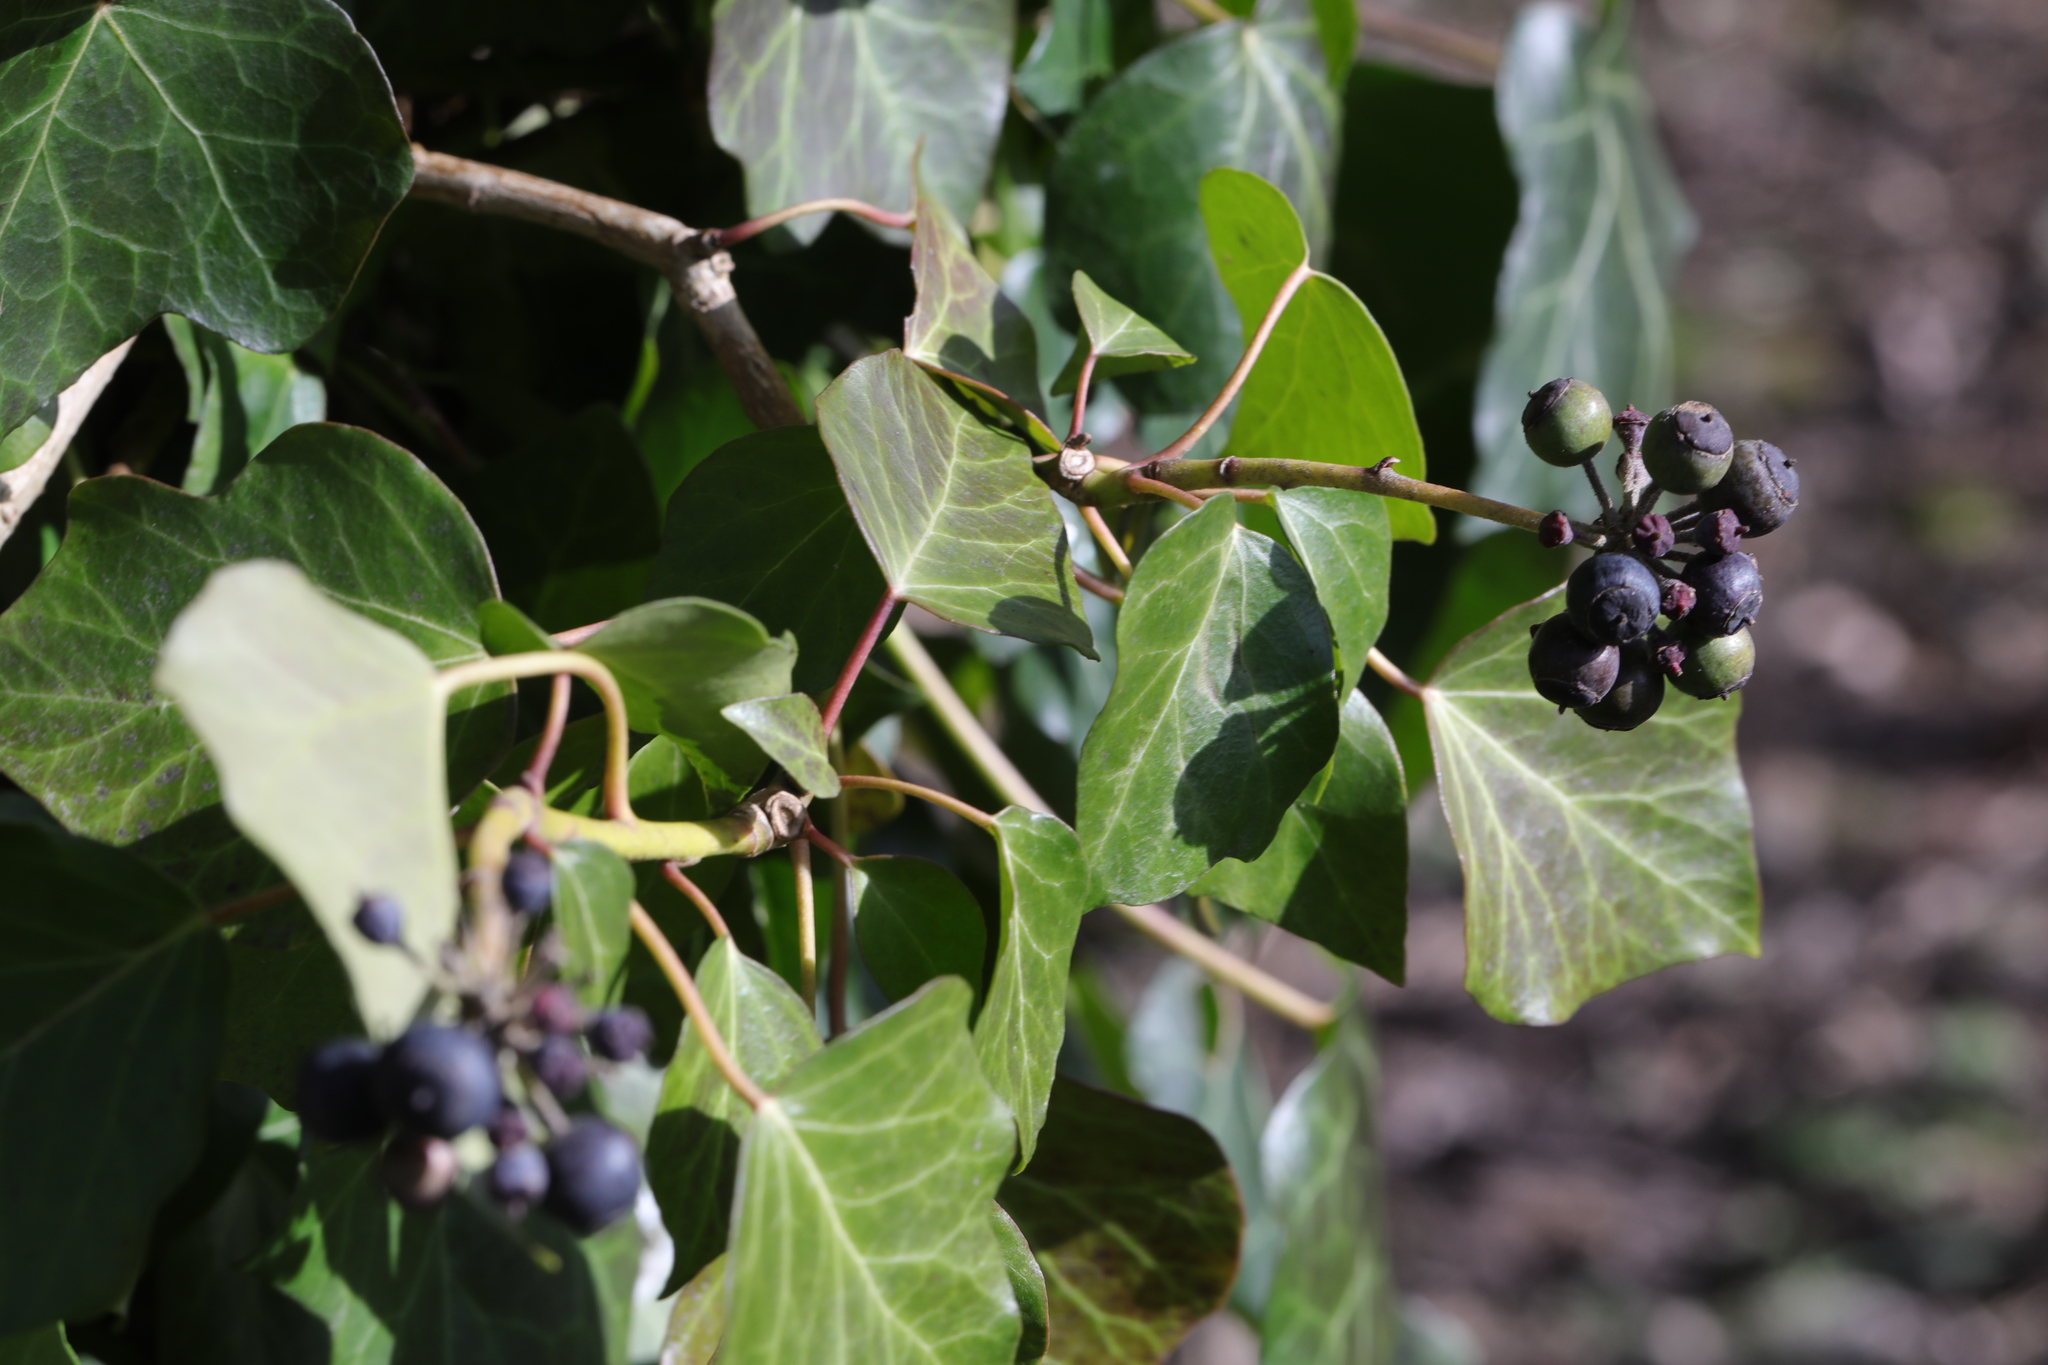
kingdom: Plantae
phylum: Tracheophyta
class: Magnoliopsida
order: Apiales
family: Araliaceae
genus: Hedera
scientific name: Hedera helix
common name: Ivy
